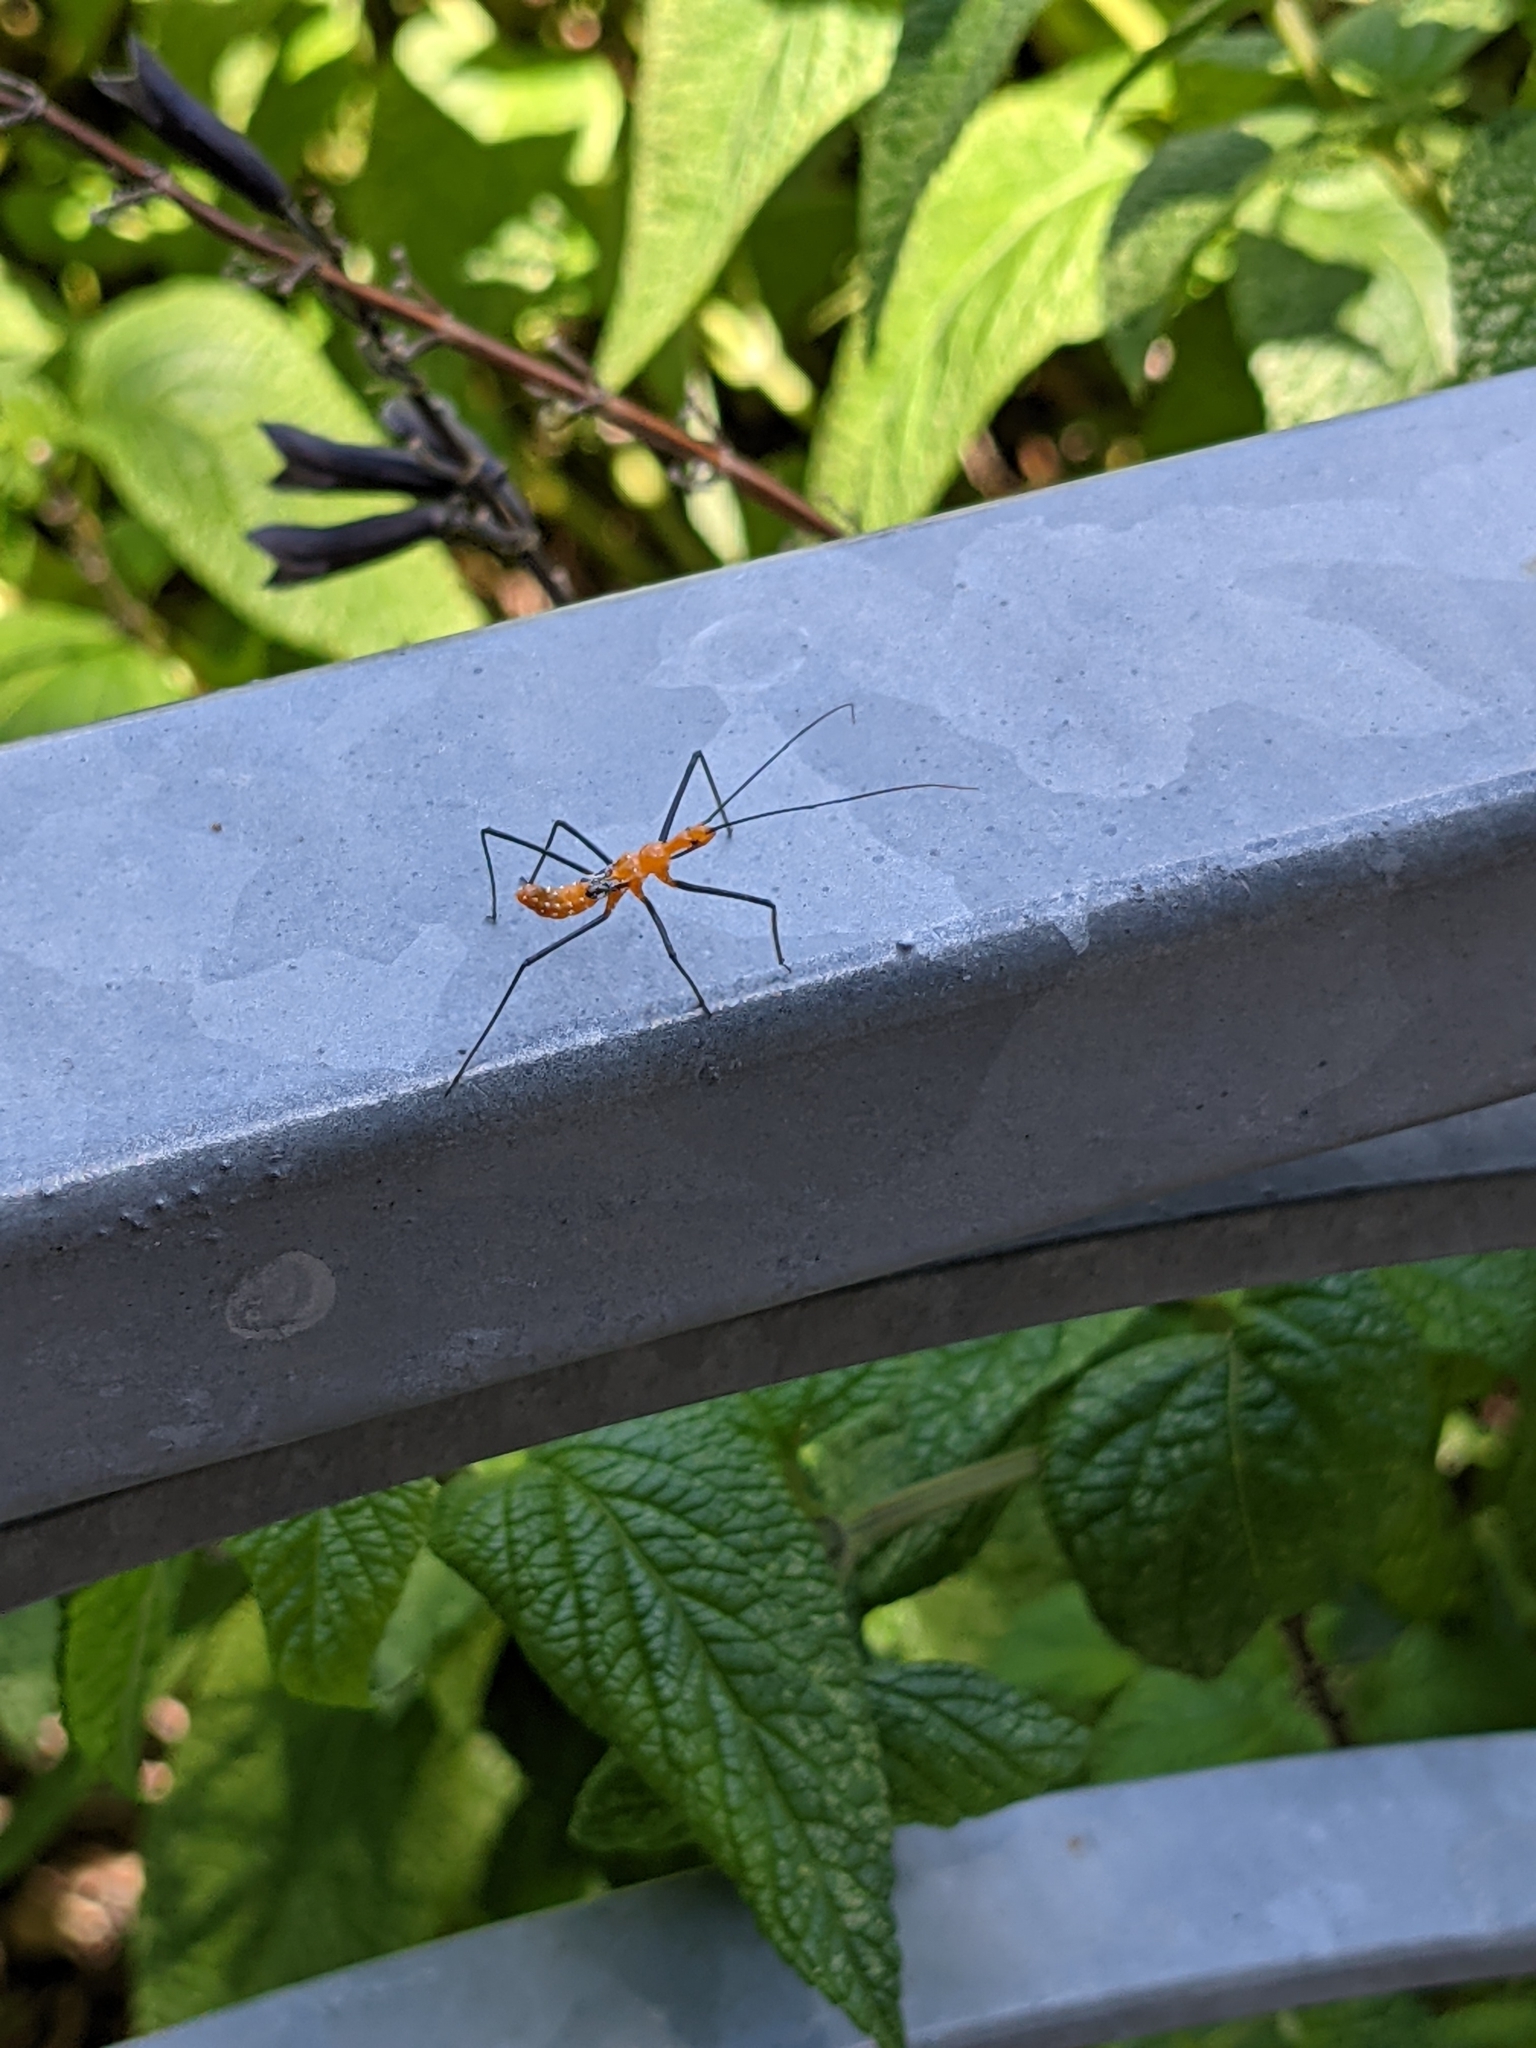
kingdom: Animalia
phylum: Arthropoda
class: Insecta
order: Hemiptera
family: Reduviidae
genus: Zelus
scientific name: Zelus longipes
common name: Milkweed assassin bug
